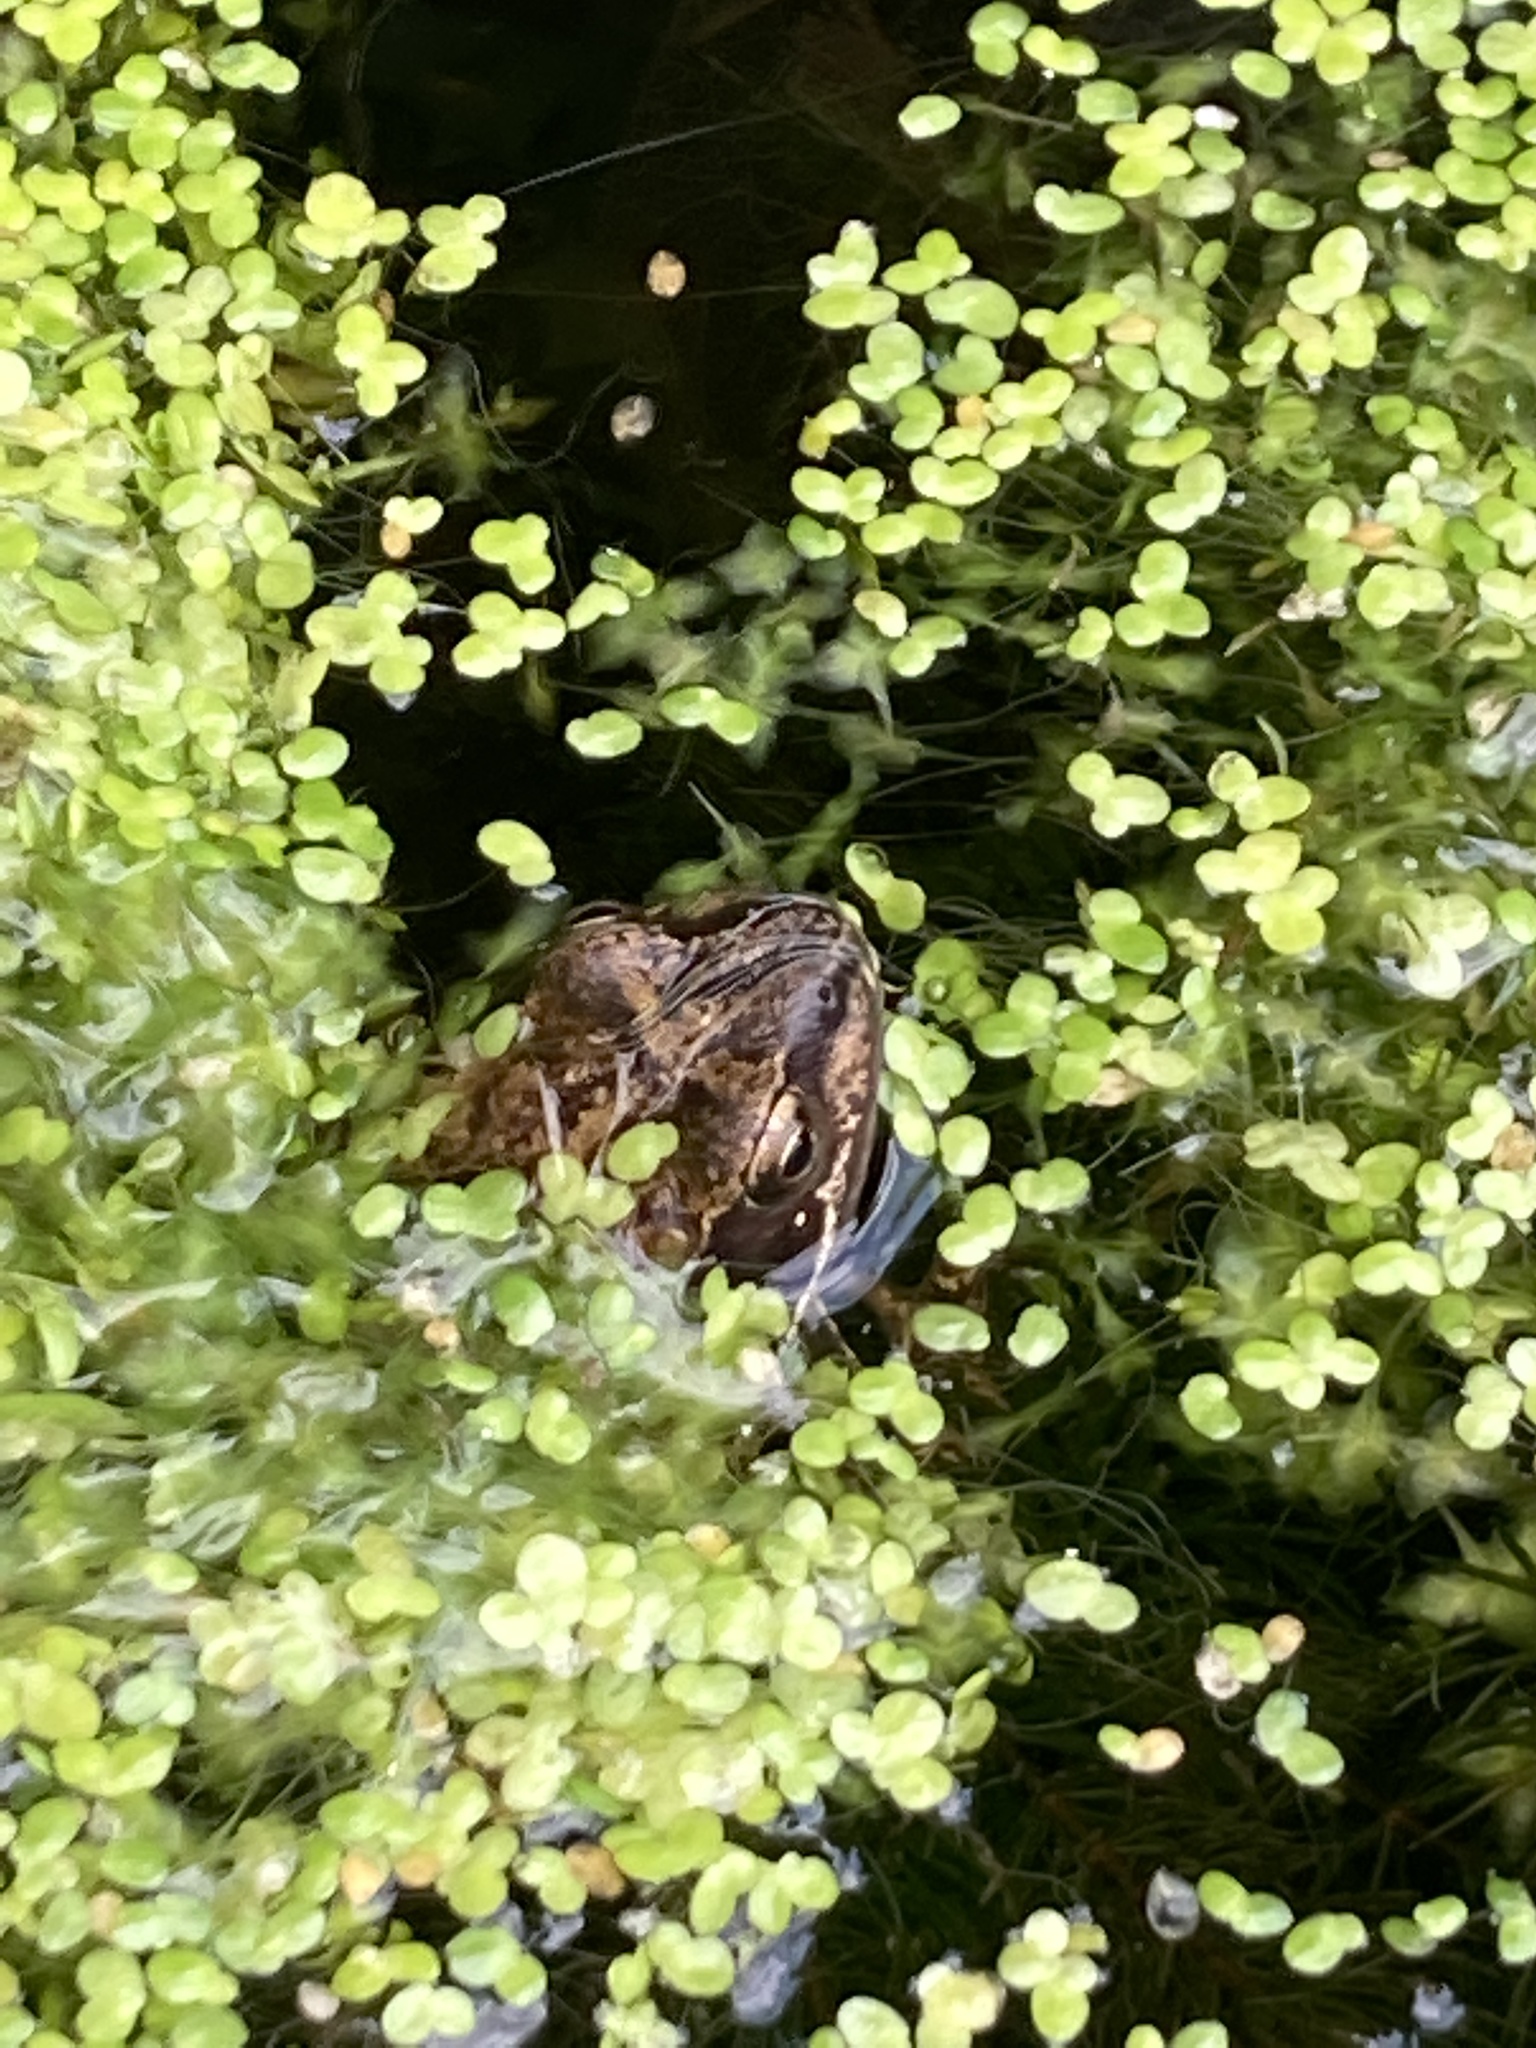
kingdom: Animalia
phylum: Chordata
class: Amphibia
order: Anura
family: Ranidae
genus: Rana
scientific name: Rana temporaria
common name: Common frog
